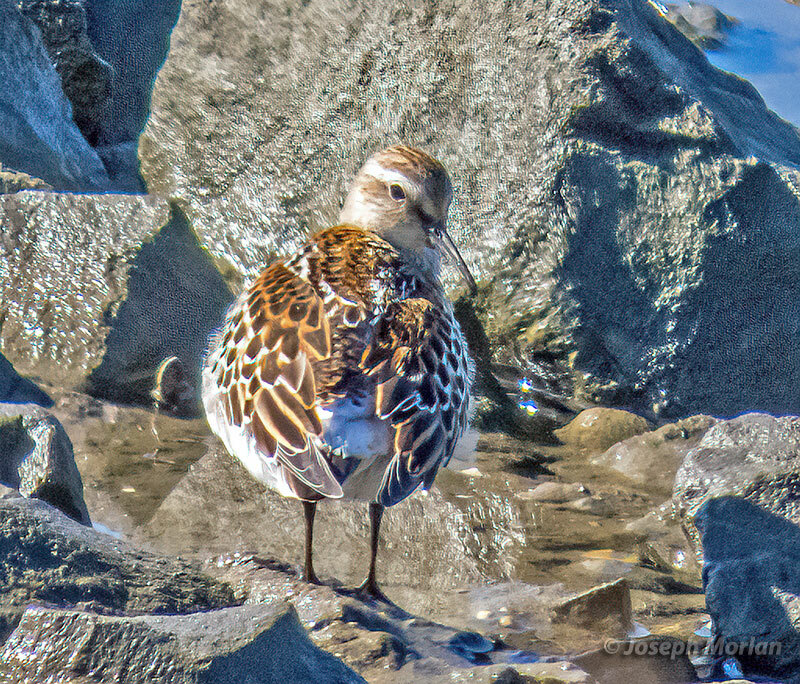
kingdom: Animalia
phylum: Chordata
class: Aves
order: Charadriiformes
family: Scolopacidae
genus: Calidris
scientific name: Calidris fuscicollis
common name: White-rumped sandpiper
